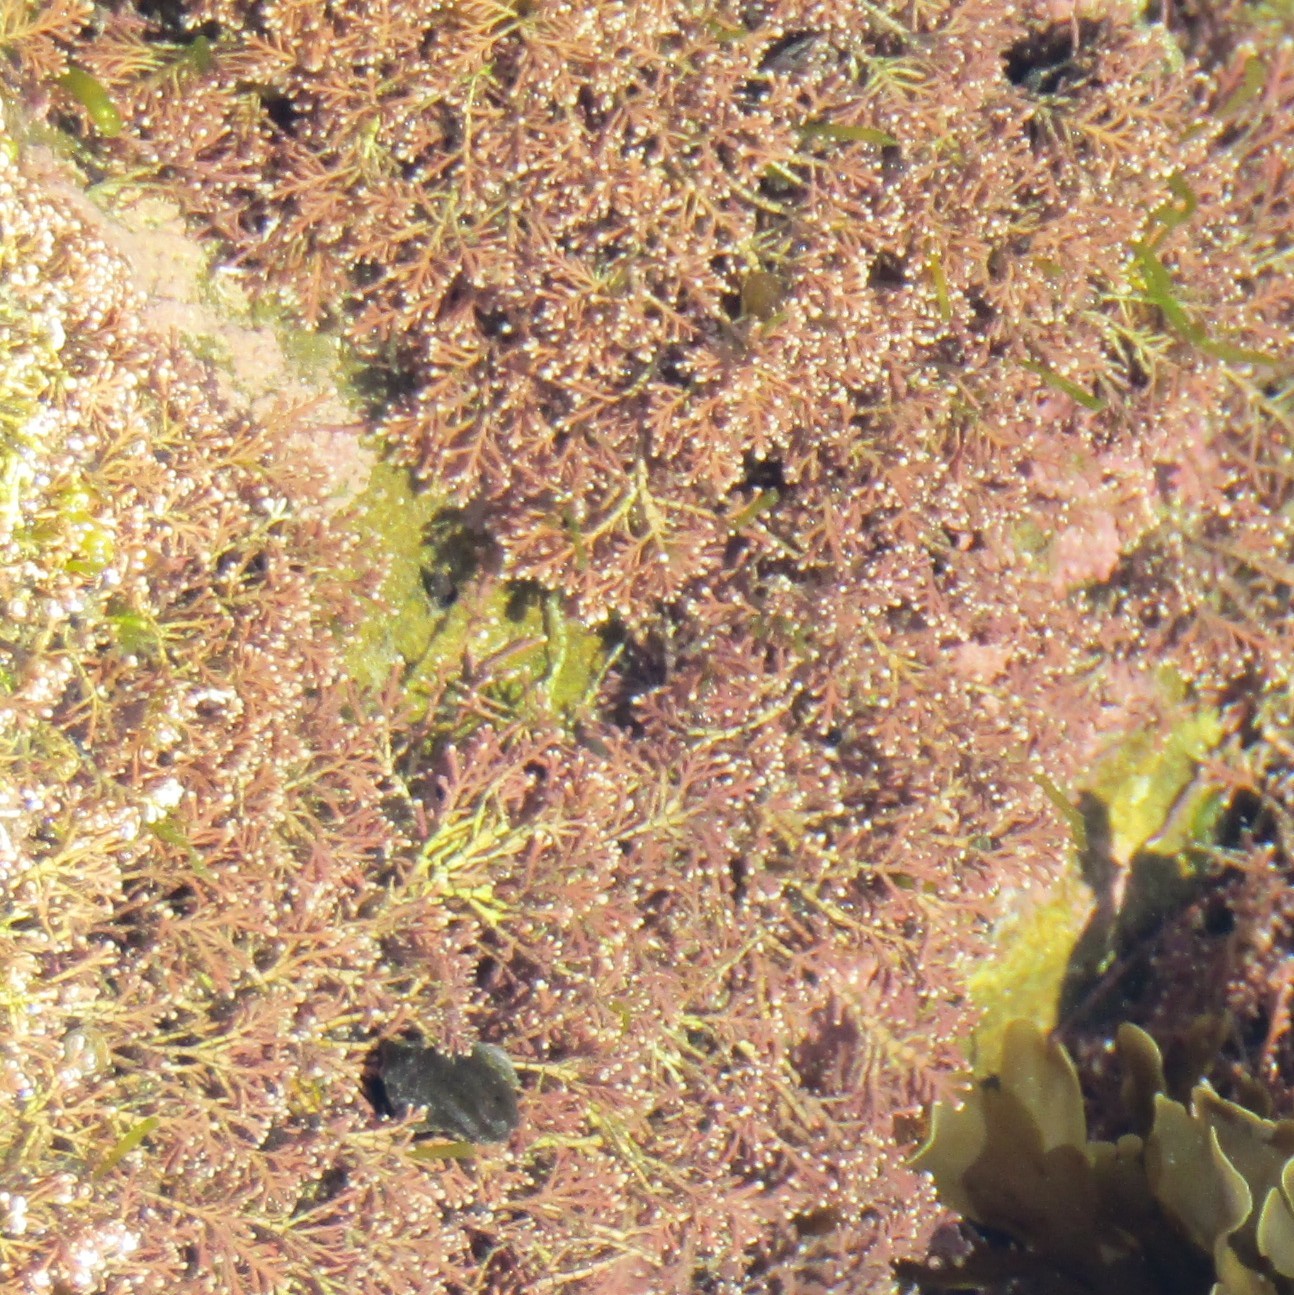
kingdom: Plantae
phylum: Rhodophyta
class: Florideophyceae
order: Corallinales
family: Corallinaceae
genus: Corallina
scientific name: Corallina officinalis
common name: Coral weed
